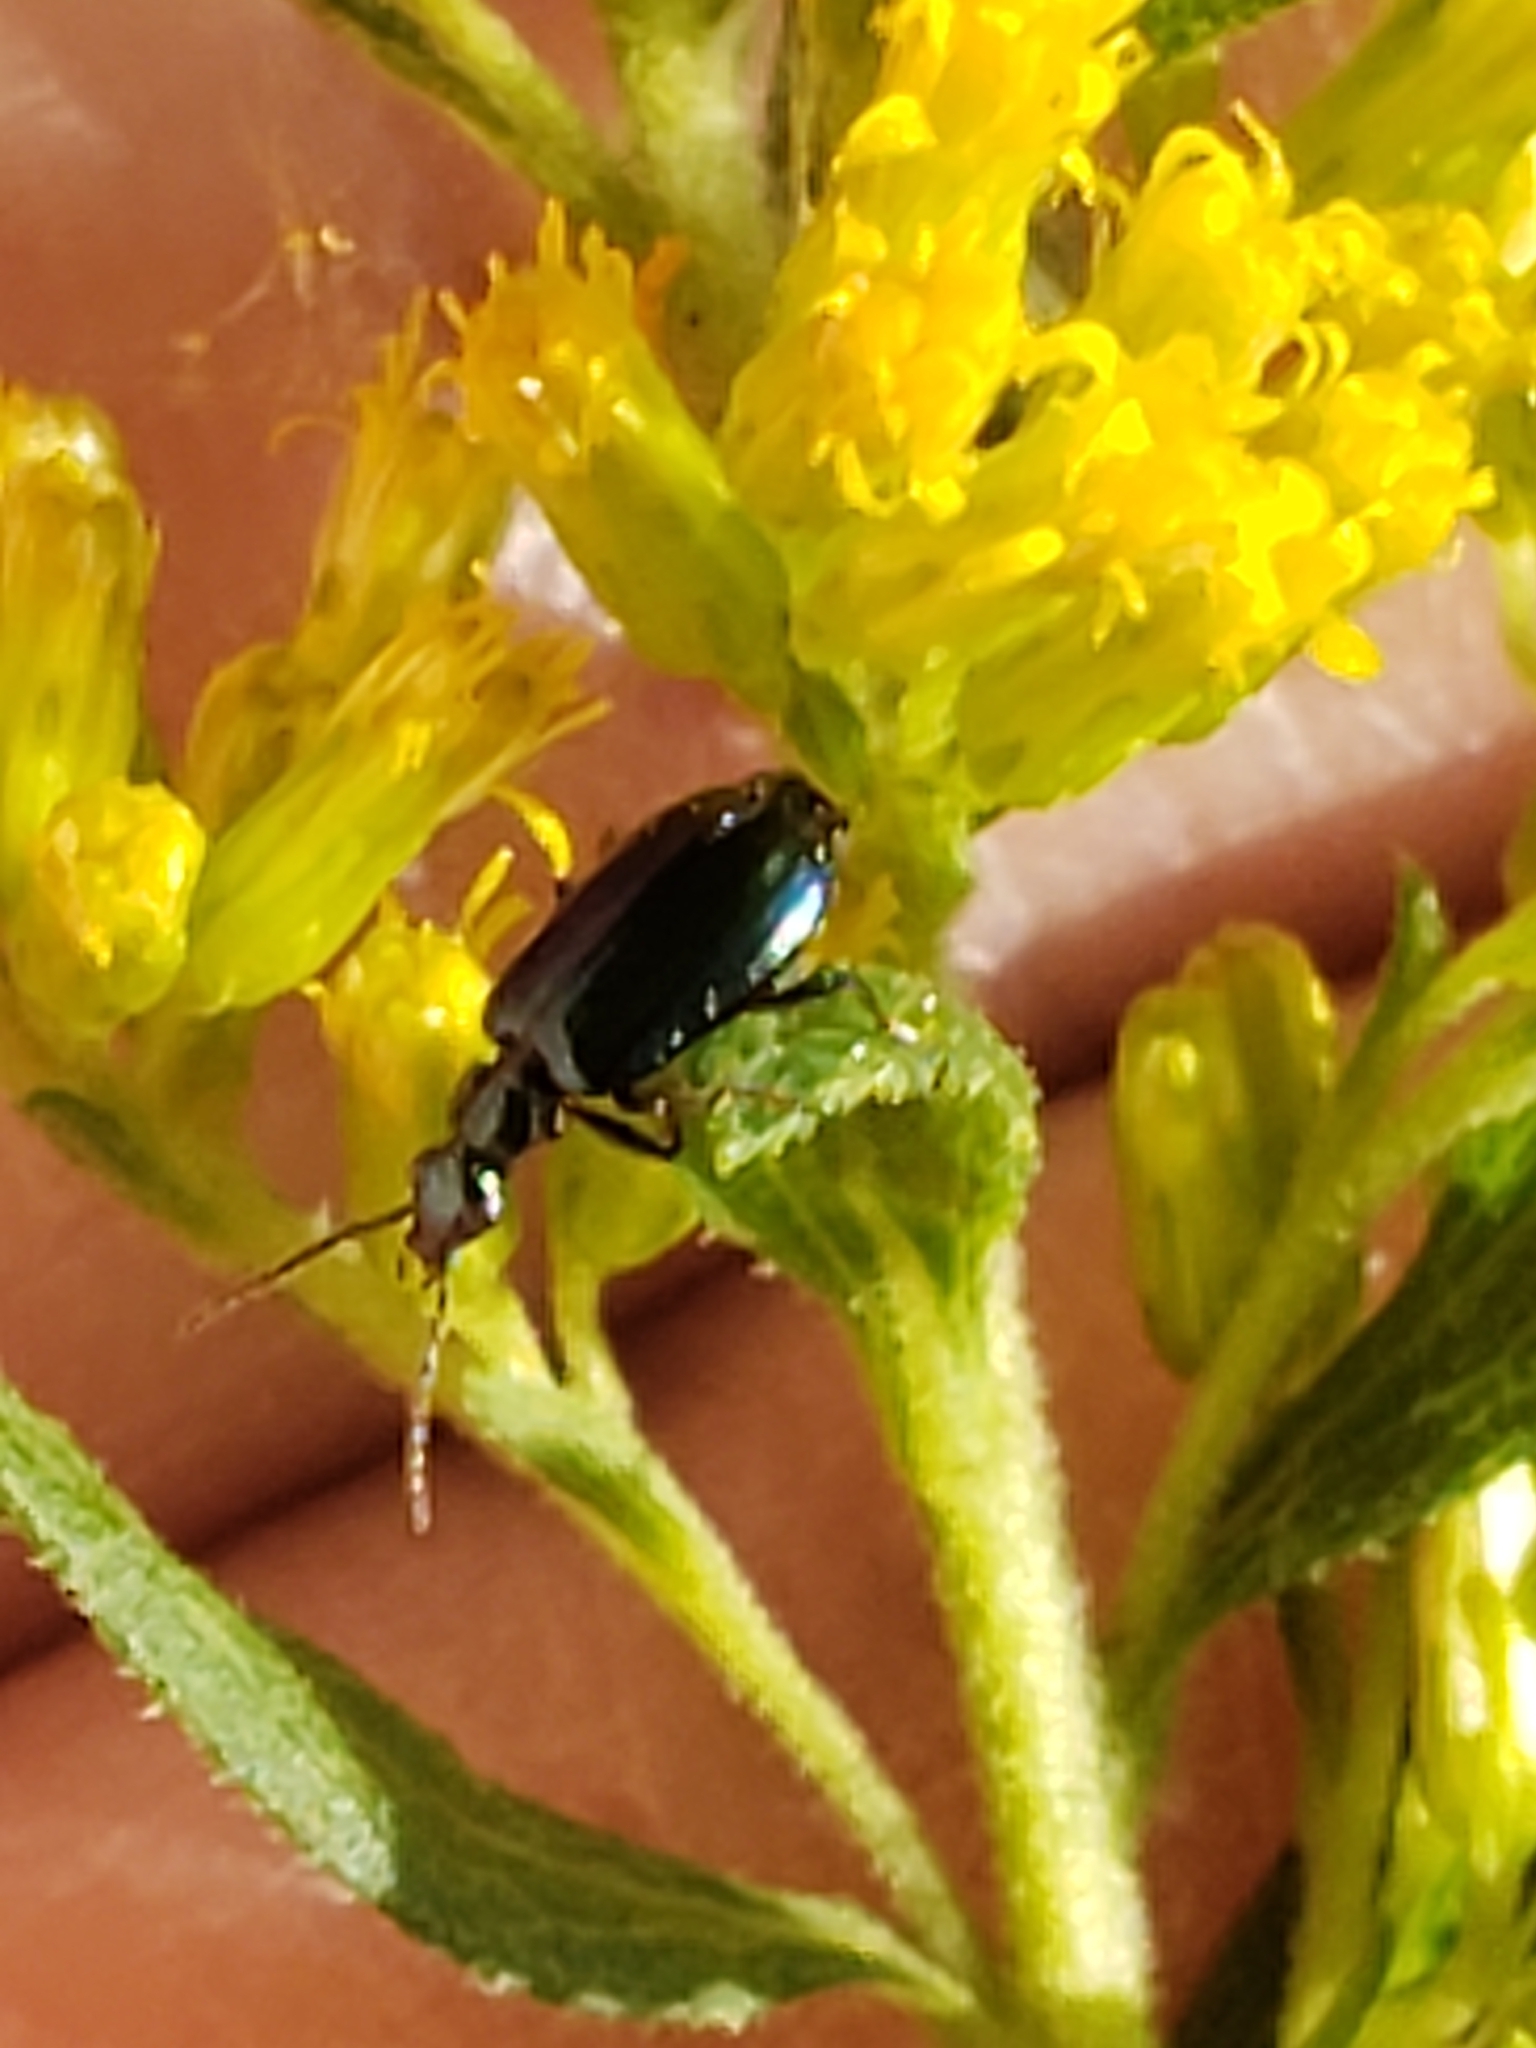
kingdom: Animalia
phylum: Arthropoda
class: Insecta
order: Coleoptera
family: Carabidae
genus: Lebia
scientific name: Lebia viridis
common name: Flower lebia beetle
